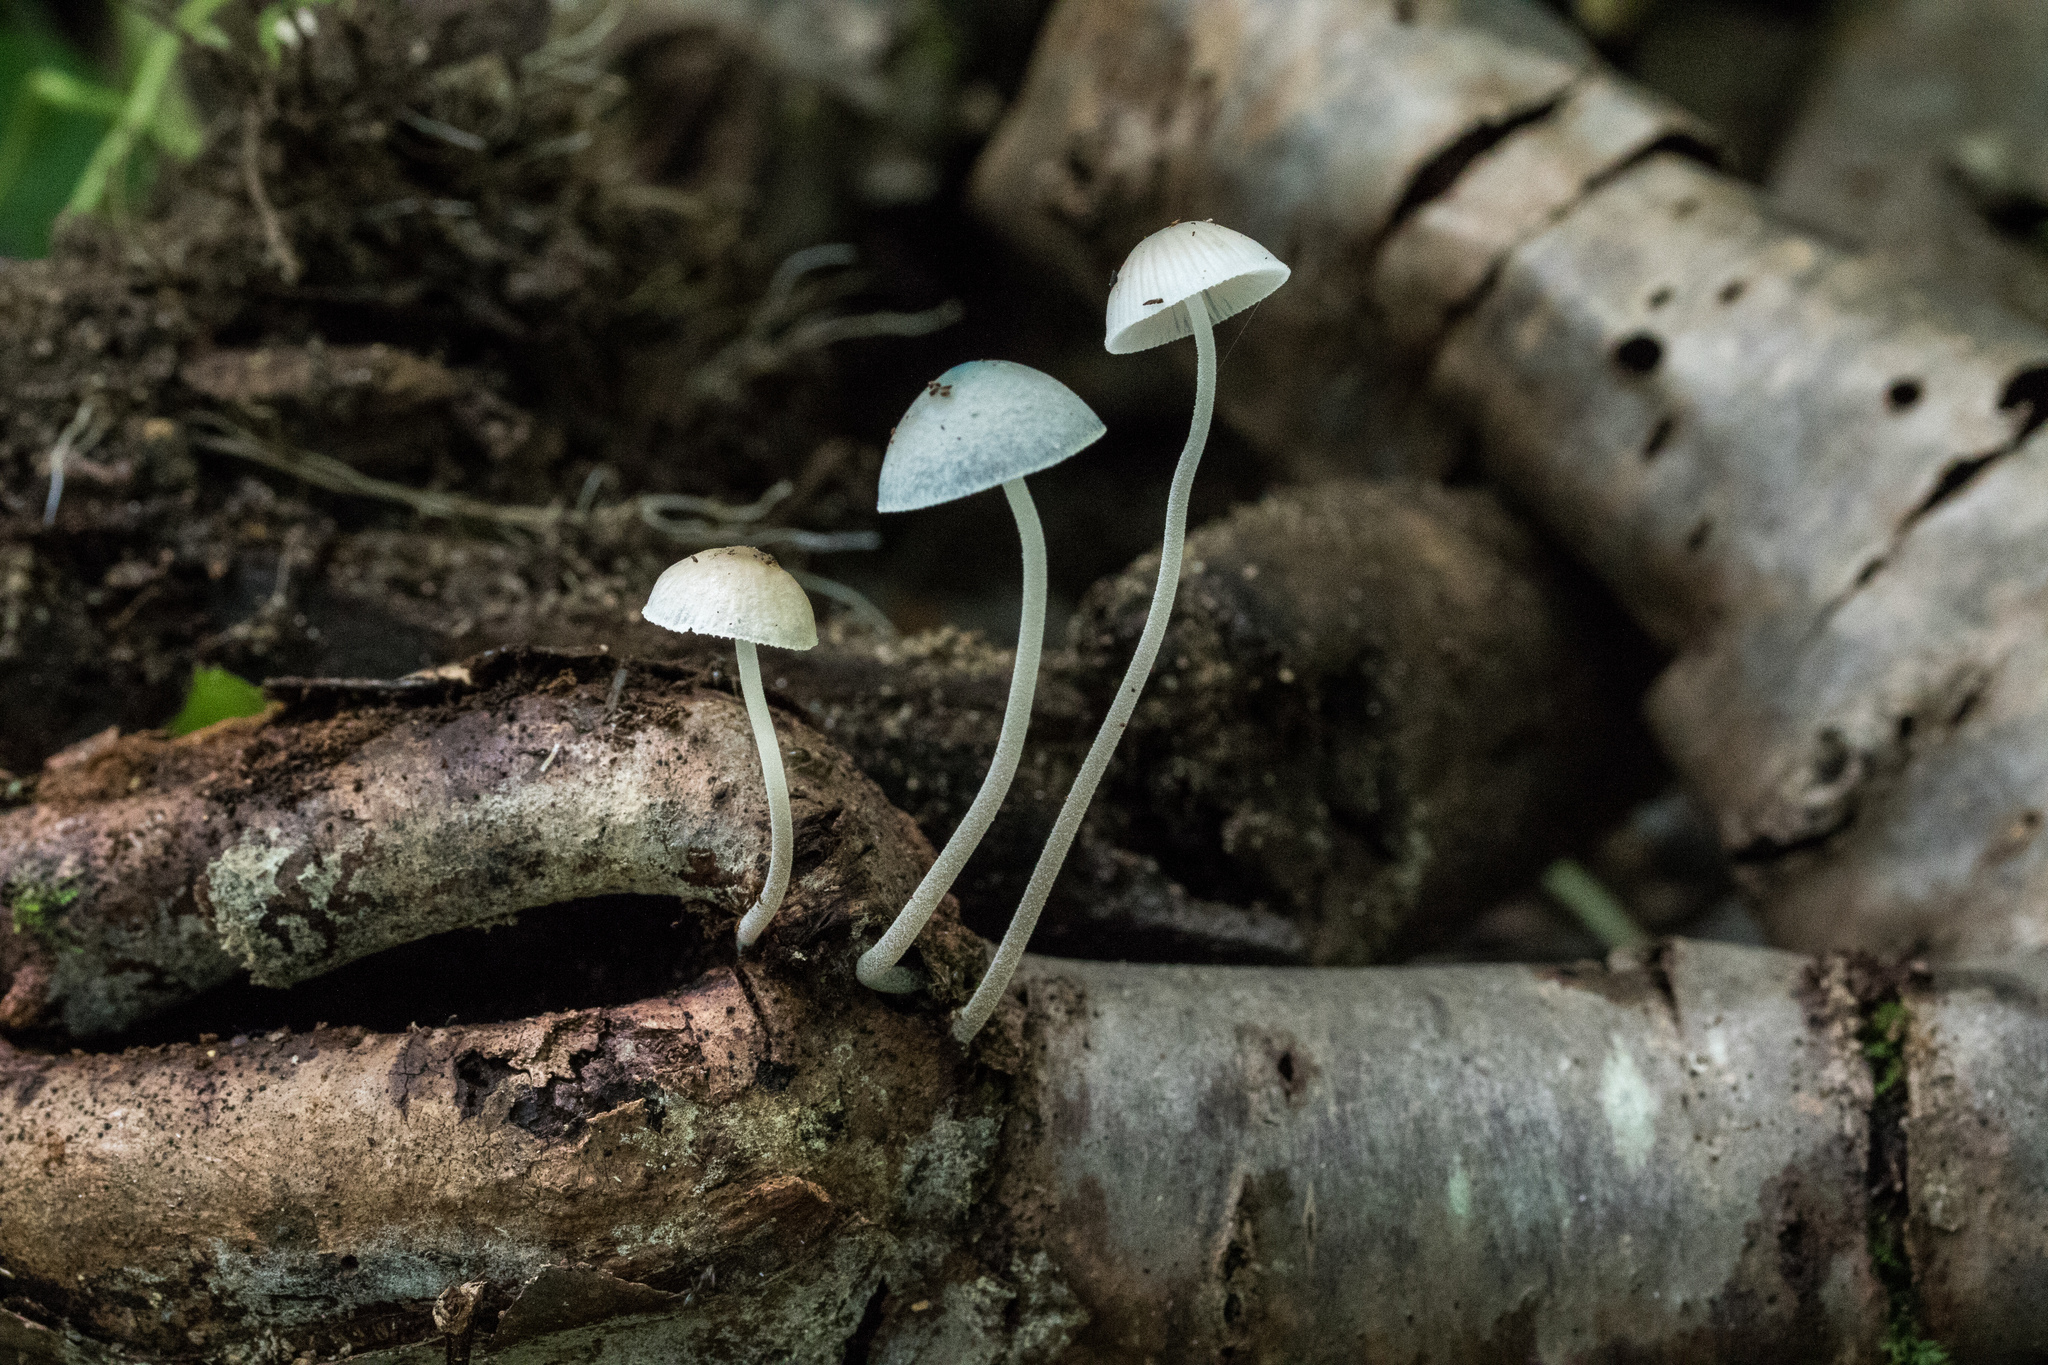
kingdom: Fungi
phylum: Basidiomycota
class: Agaricomycetes
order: Agaricales
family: Mycenaceae
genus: Mycena
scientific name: Mycena subcaerulea
